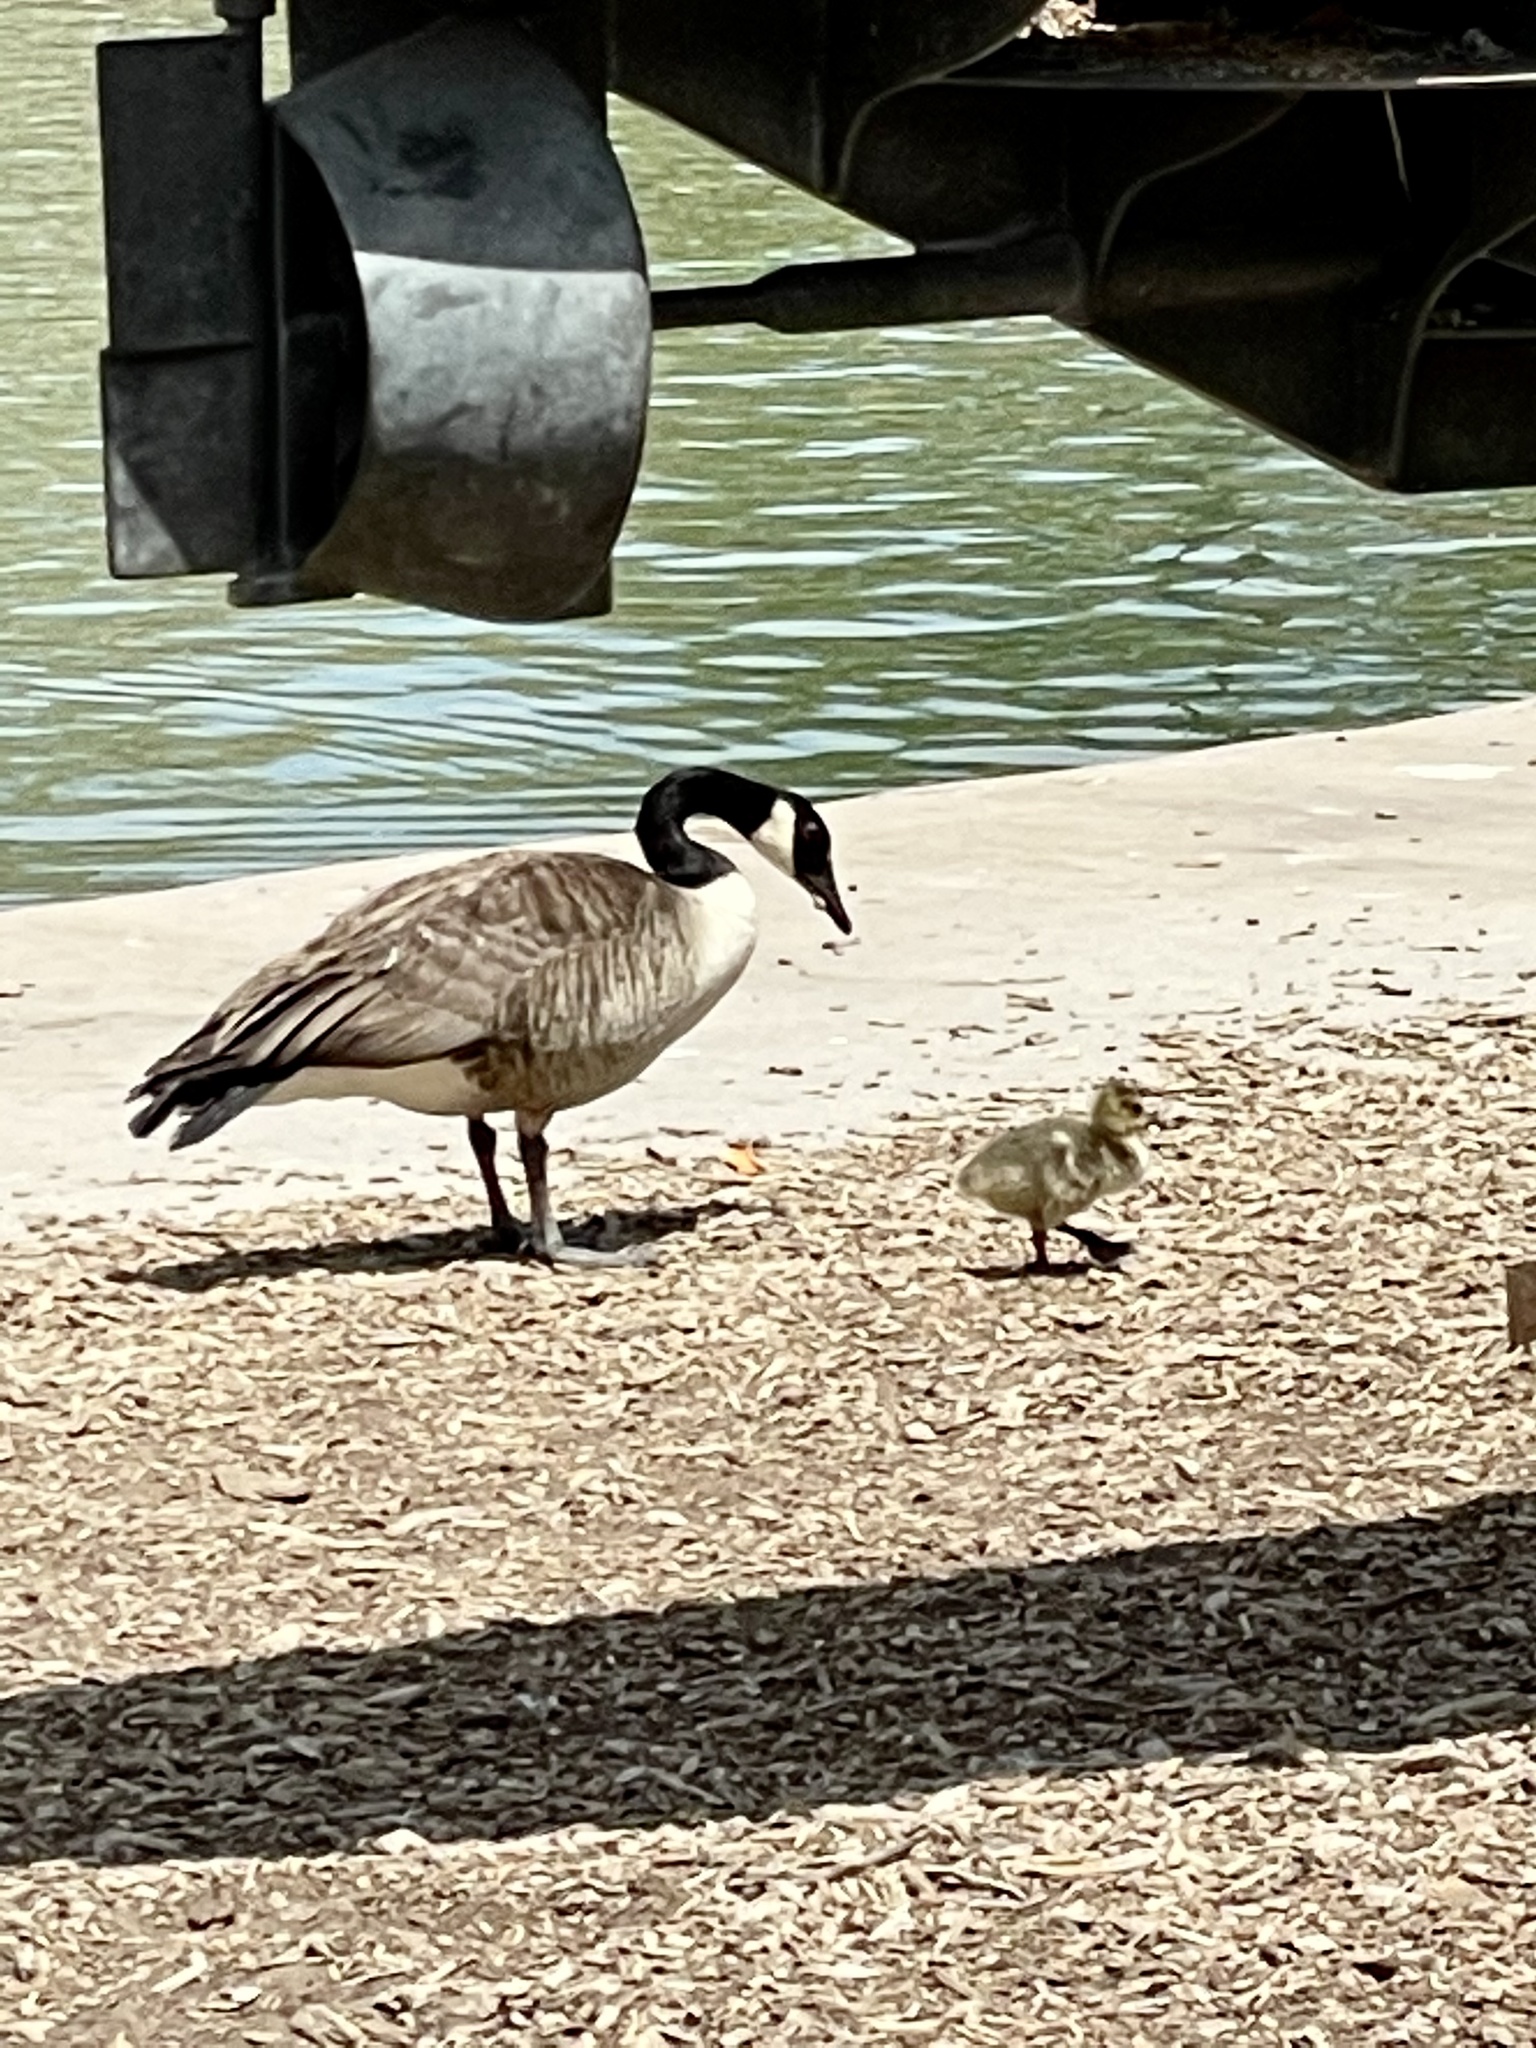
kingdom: Animalia
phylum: Chordata
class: Aves
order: Anseriformes
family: Anatidae
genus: Branta
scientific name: Branta canadensis
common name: Canada goose
